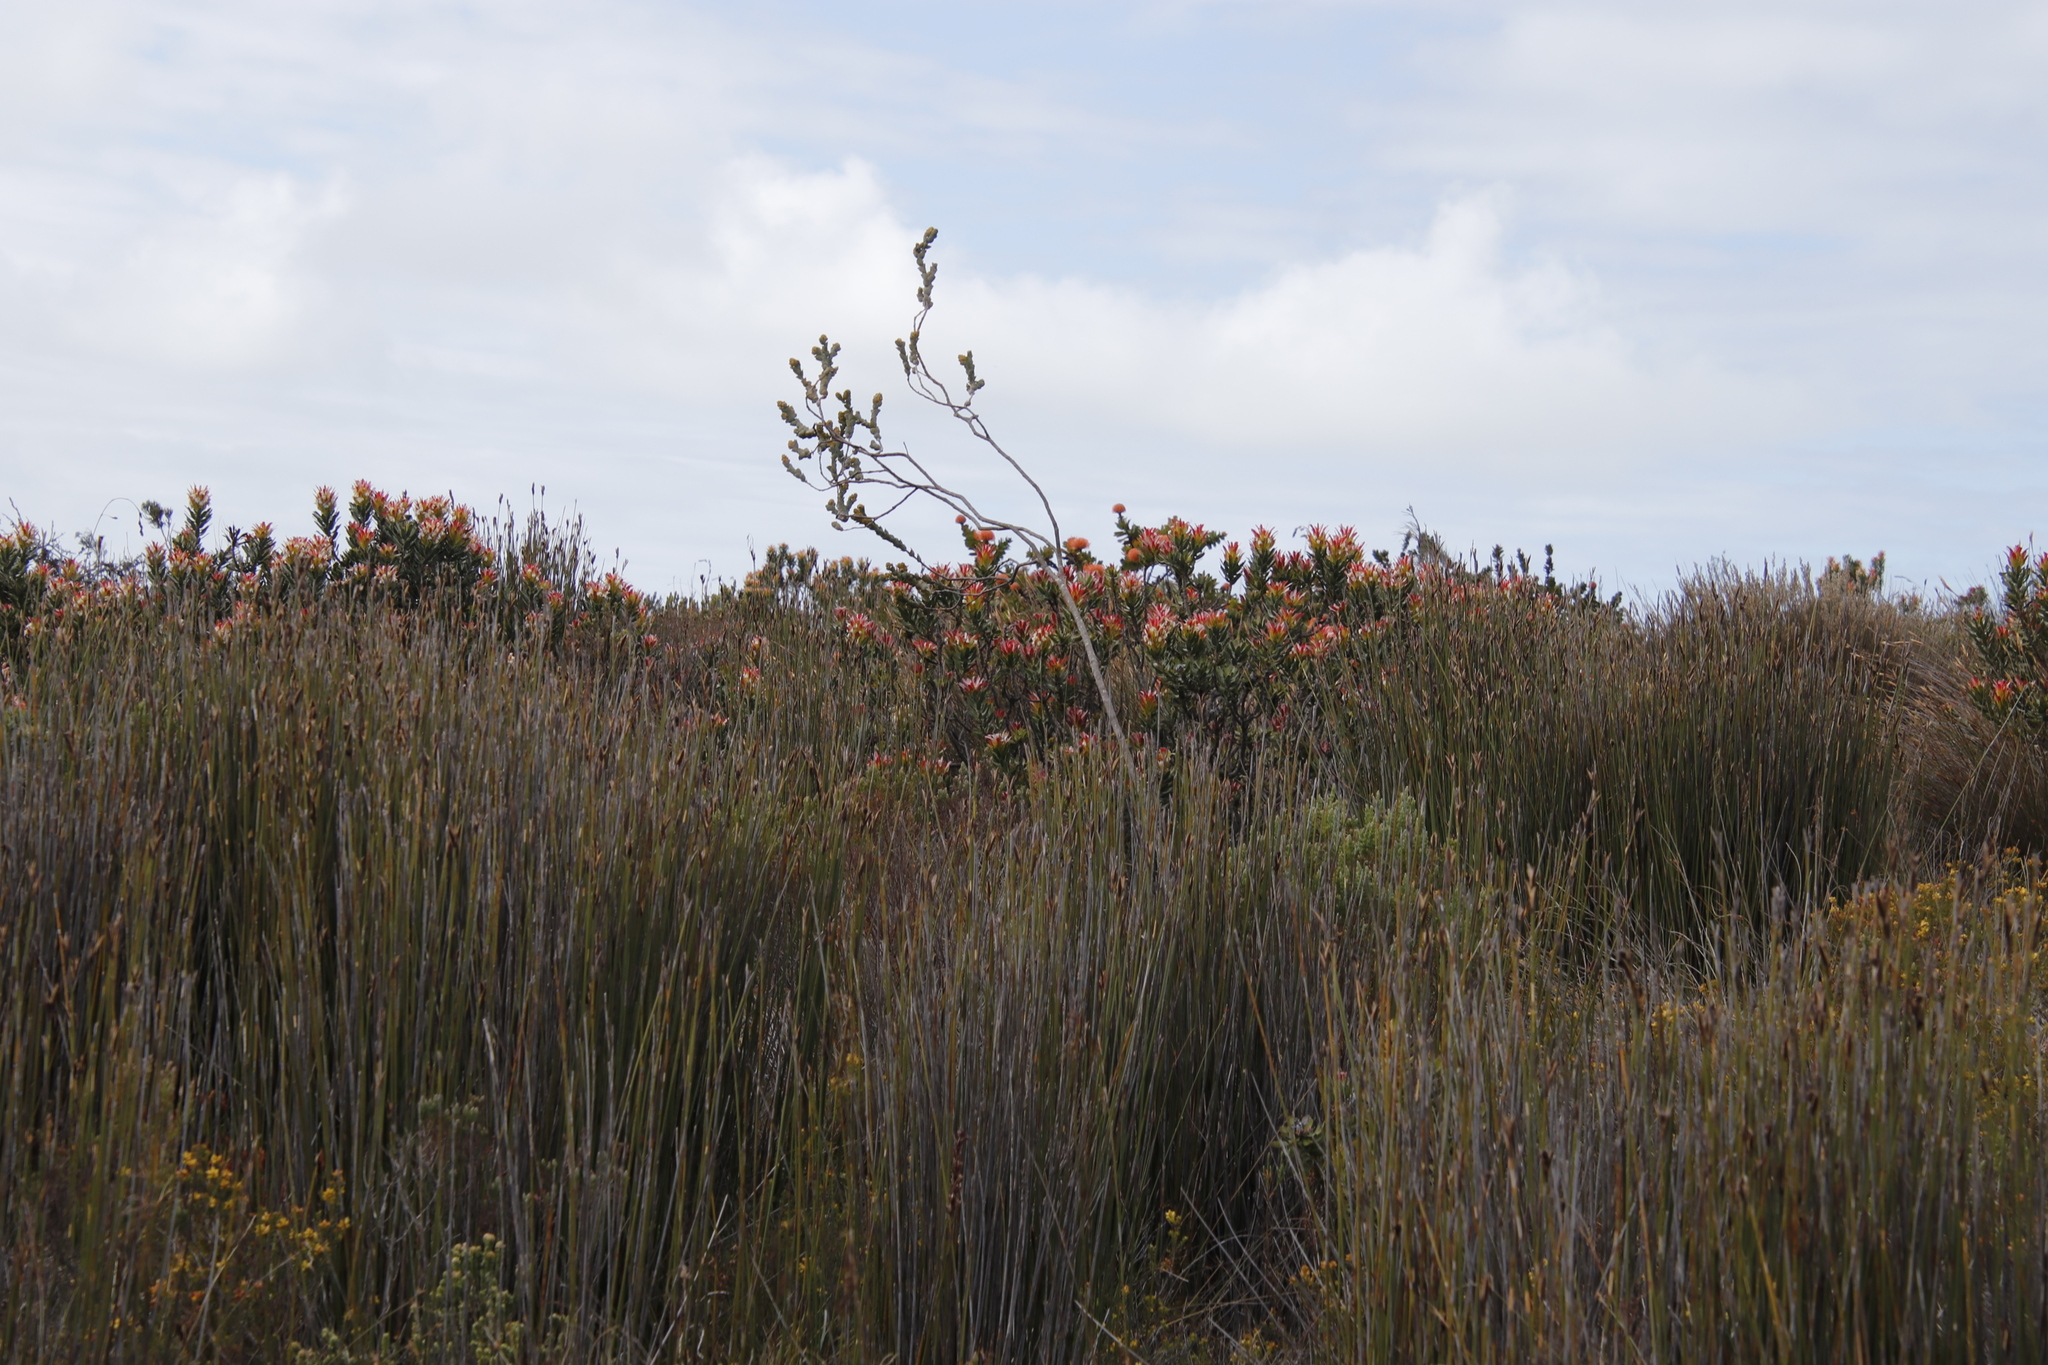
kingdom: Plantae
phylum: Tracheophyta
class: Magnoliopsida
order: Santalales
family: Thesiaceae
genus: Thesium
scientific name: Thesium euphorbioides
